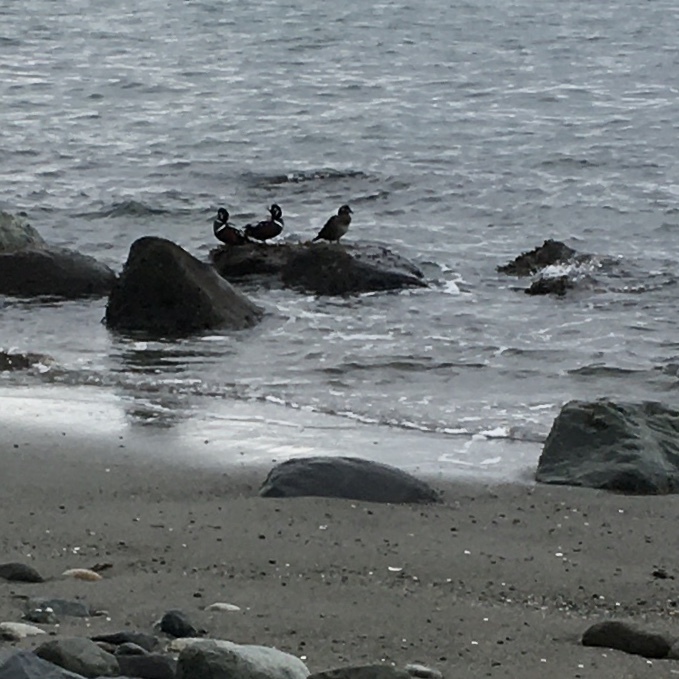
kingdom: Animalia
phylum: Chordata
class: Aves
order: Anseriformes
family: Anatidae
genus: Histrionicus
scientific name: Histrionicus histrionicus
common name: Harlequin duck
